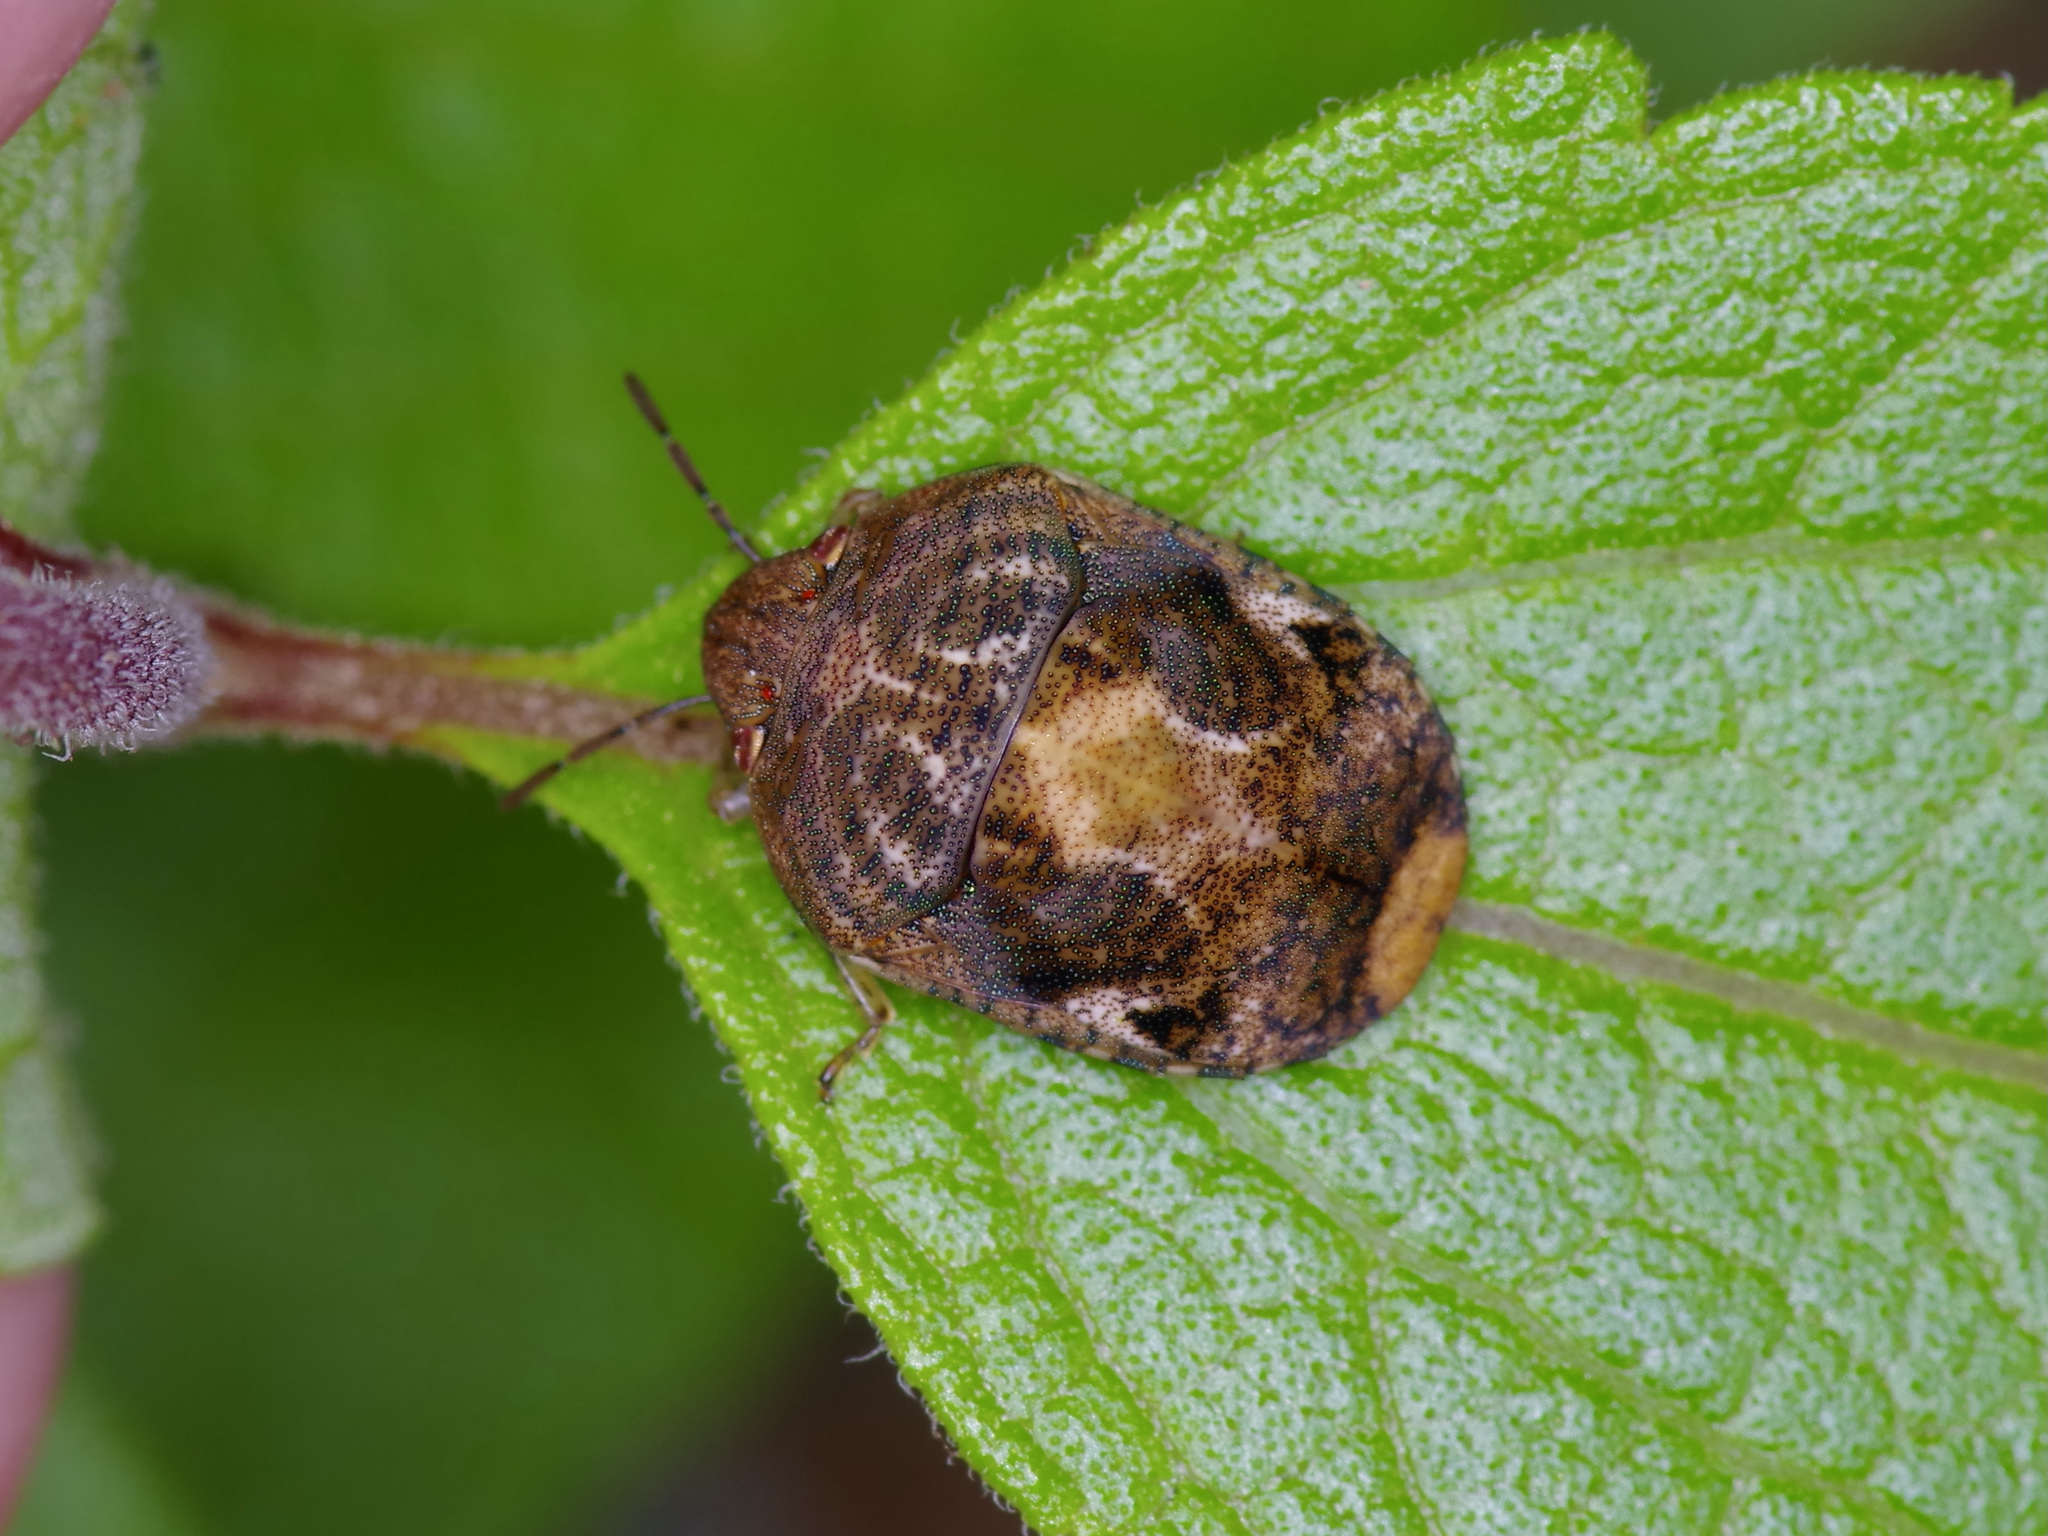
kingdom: Animalia
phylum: Arthropoda
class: Insecta
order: Hemiptera
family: Scutelleridae
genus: Stethaulax
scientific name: Stethaulax marmoratus
